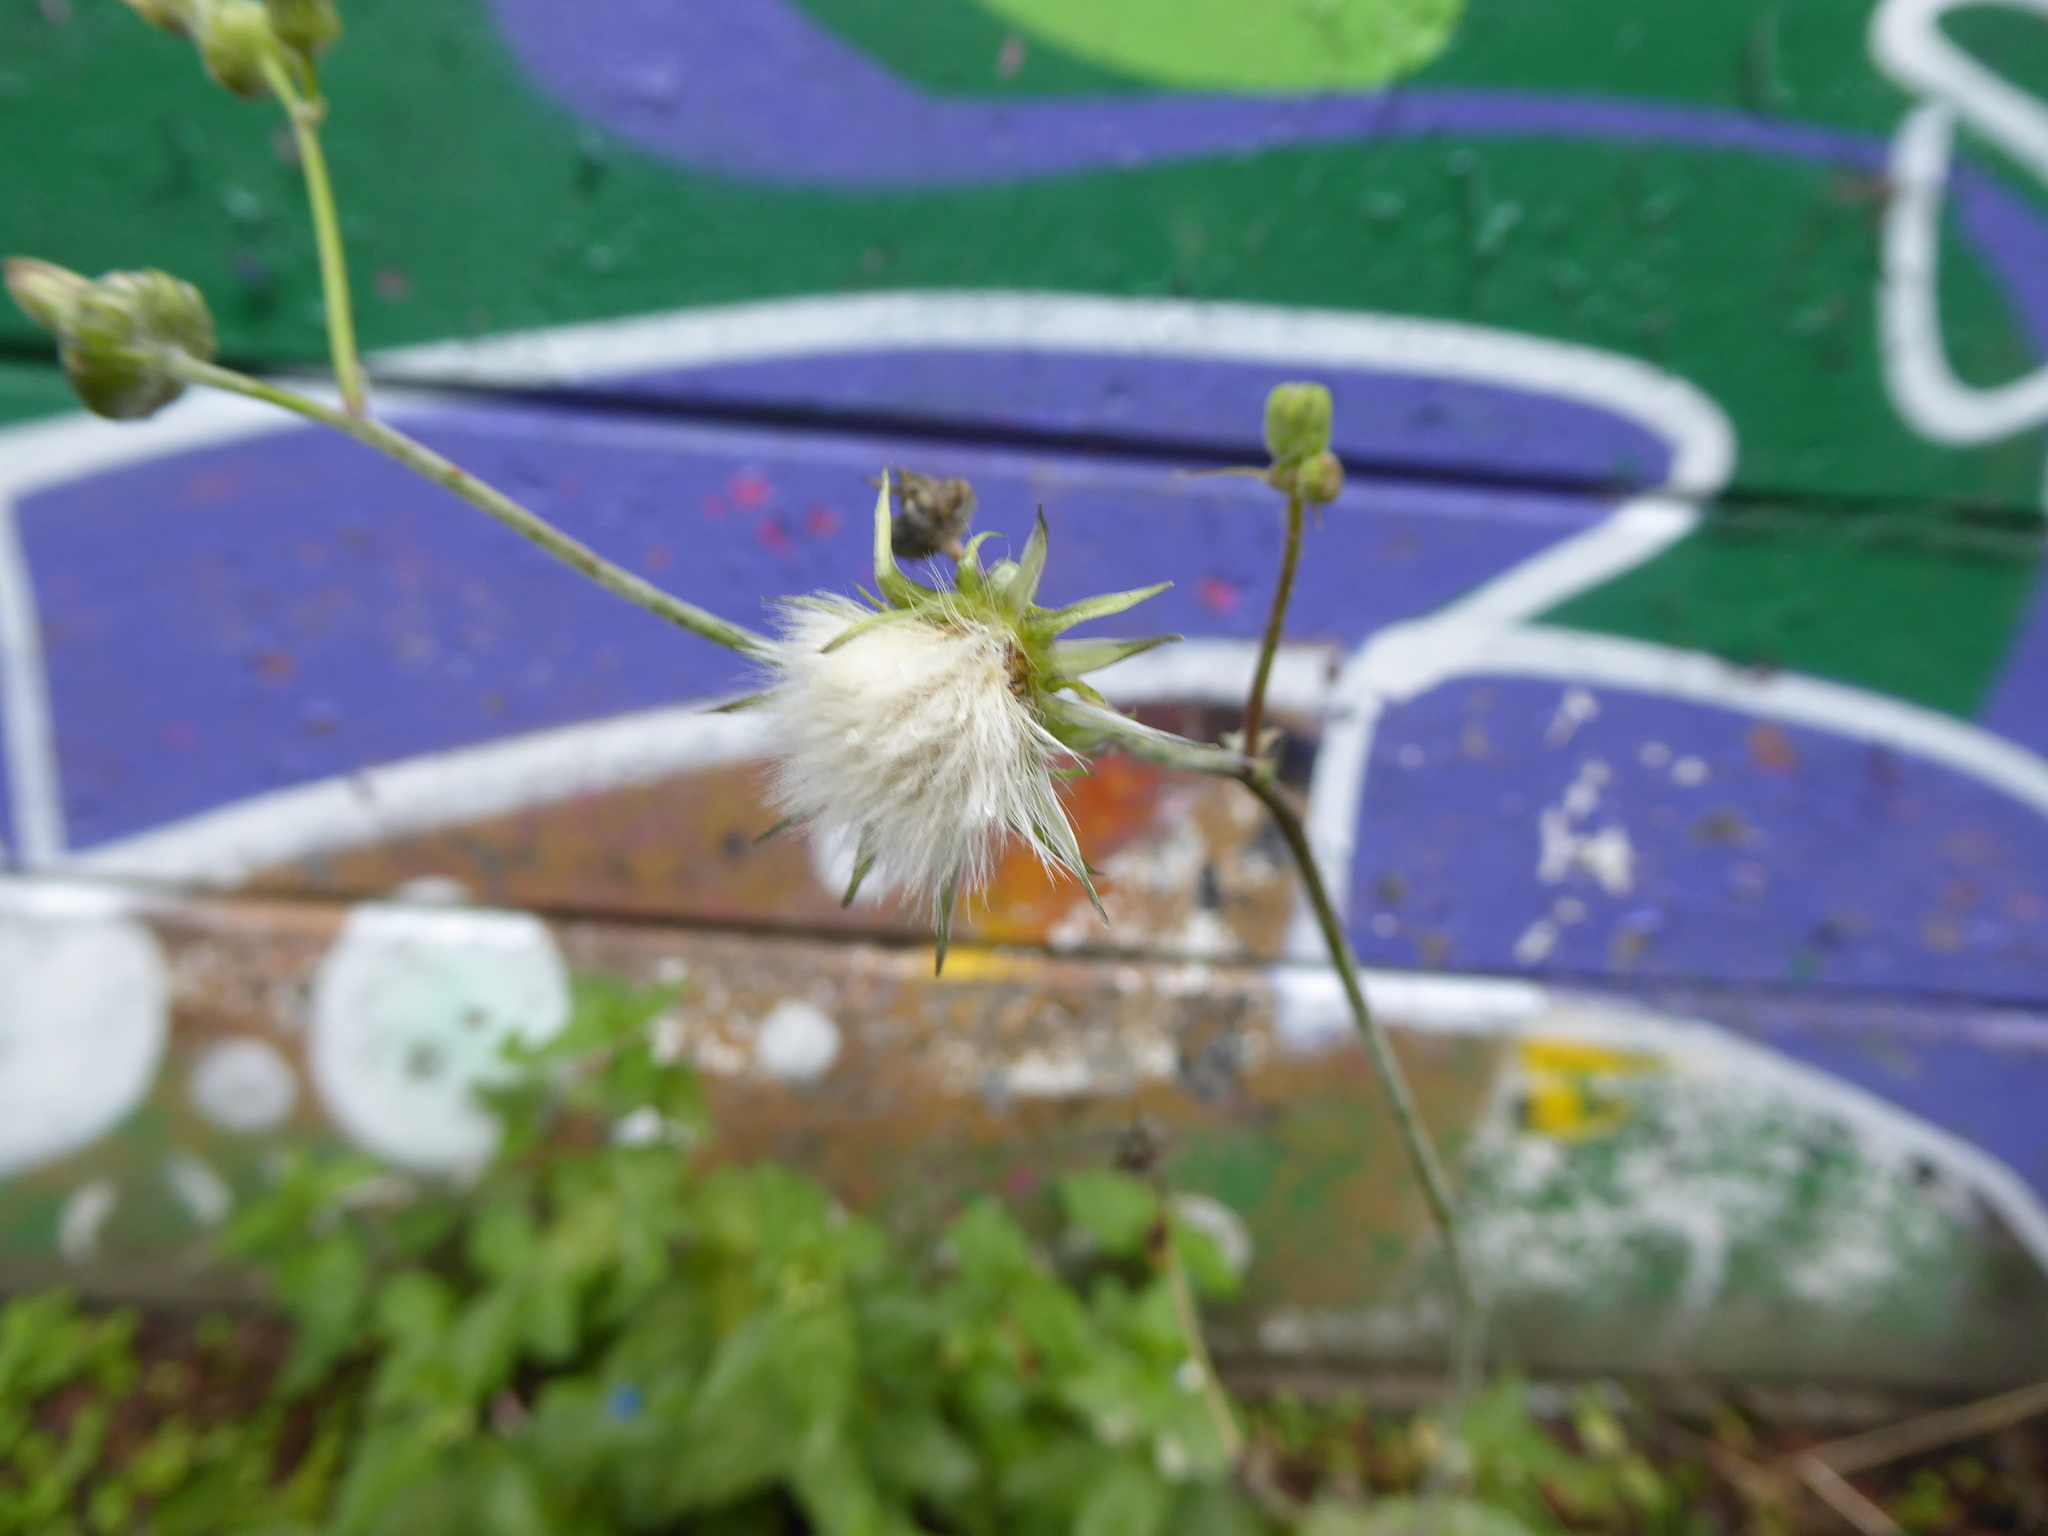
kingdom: Plantae
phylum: Tracheophyta
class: Magnoliopsida
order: Asterales
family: Asteraceae
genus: Sonchus
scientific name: Sonchus oleraceus
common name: Common sowthistle
